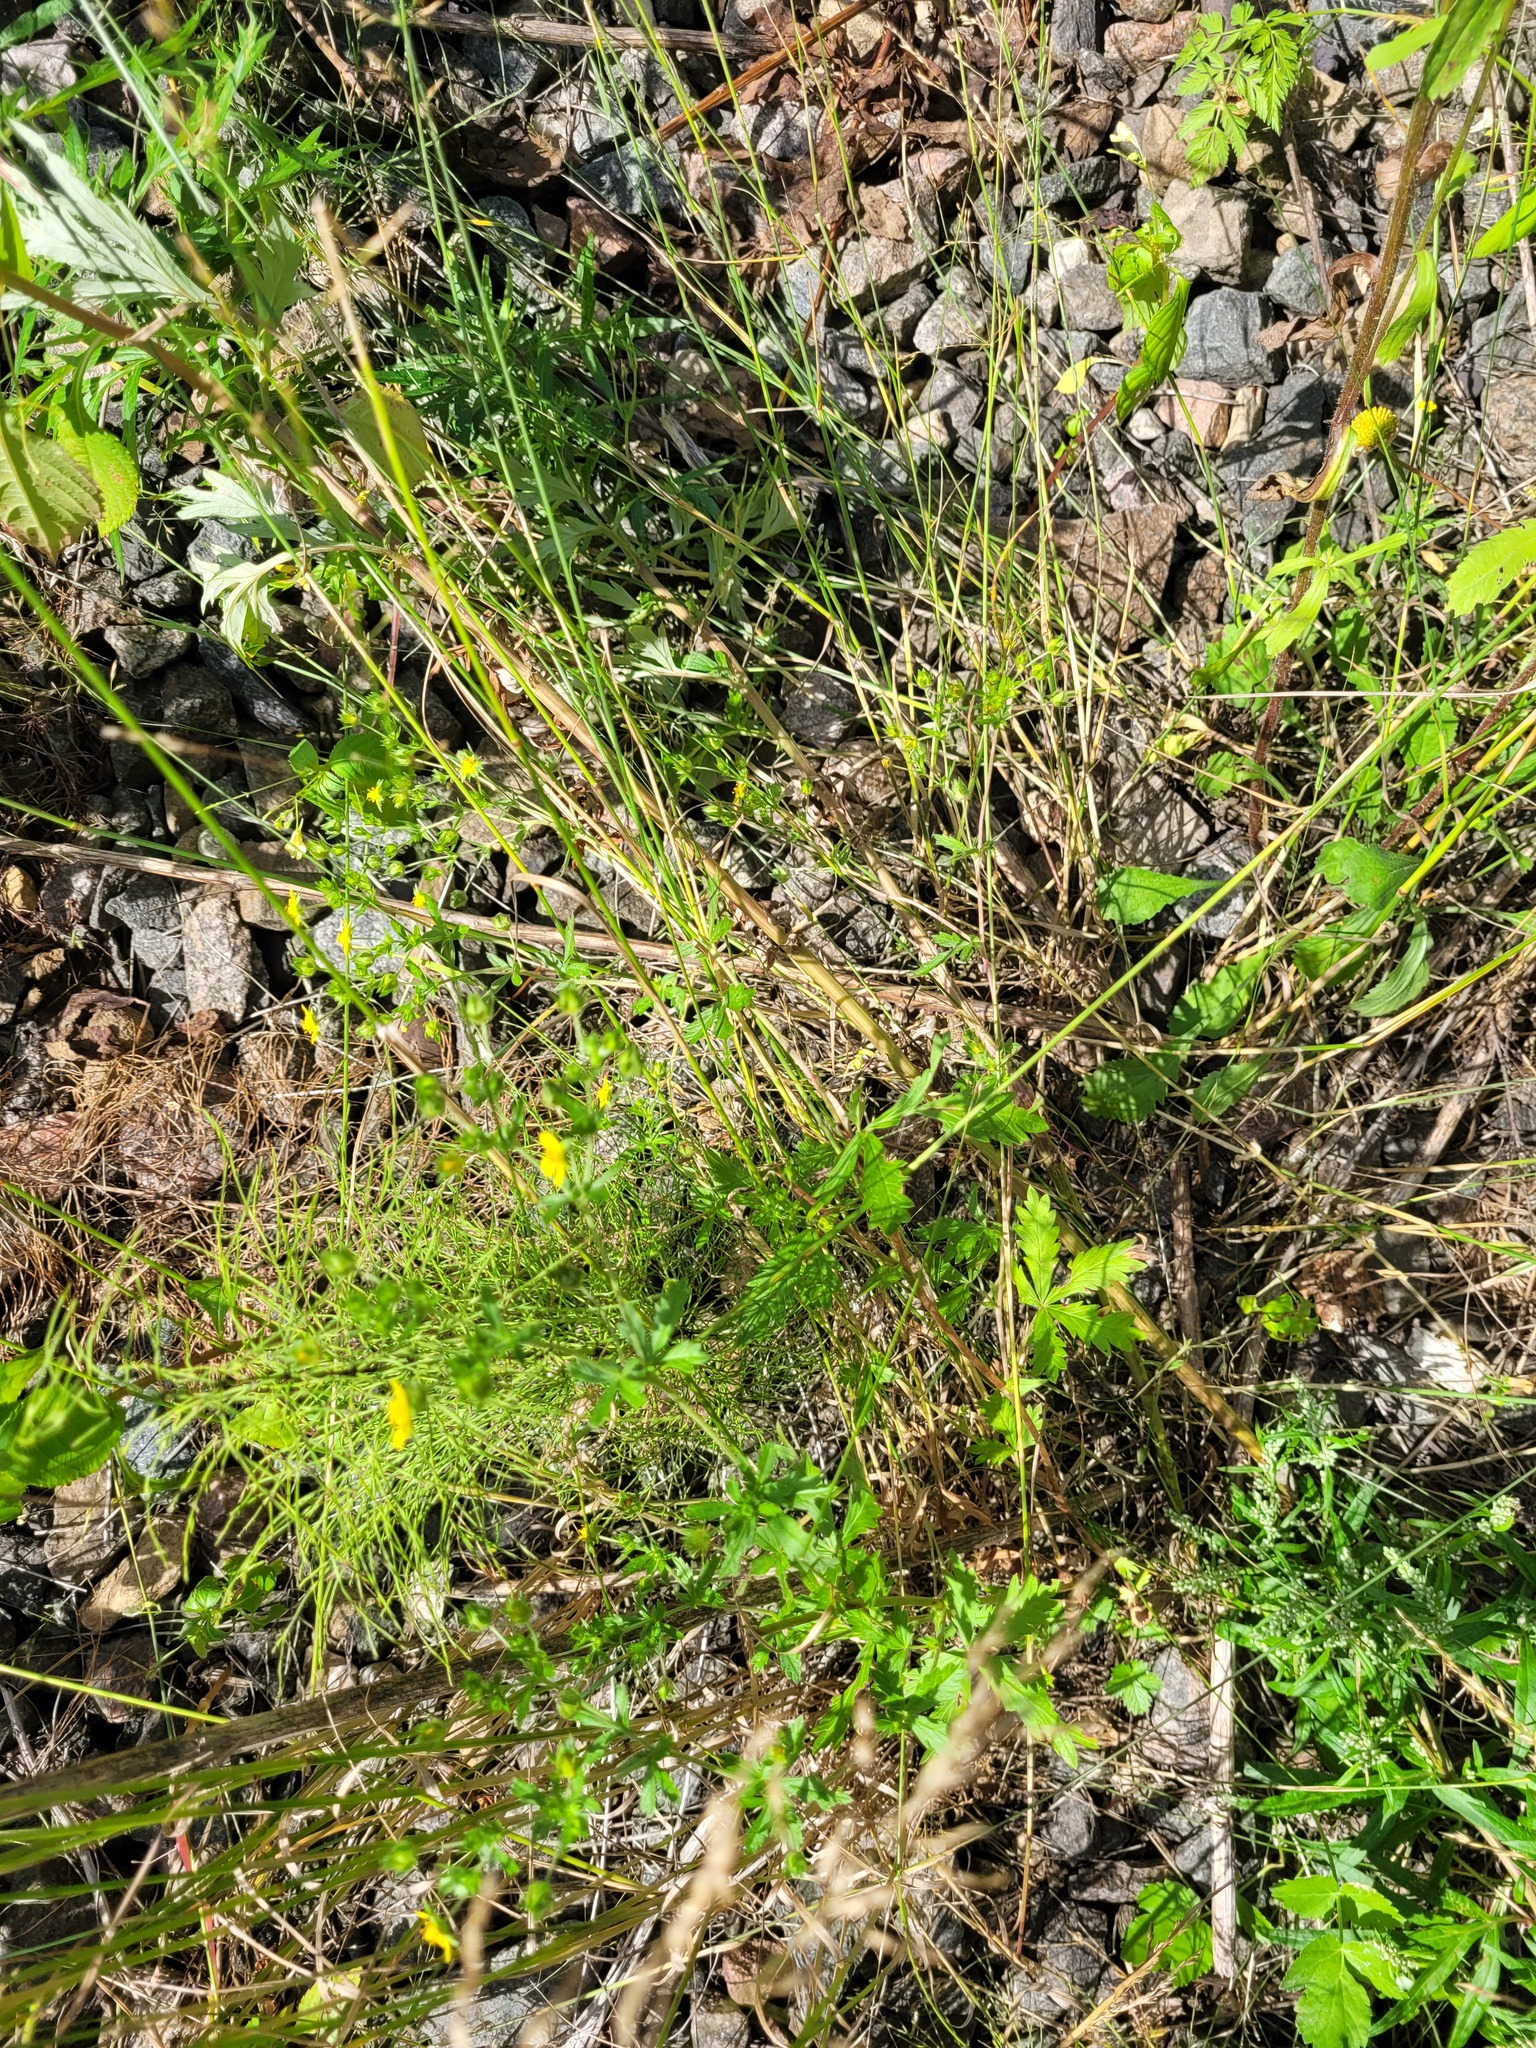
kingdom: Plantae
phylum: Tracheophyta
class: Magnoliopsida
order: Rosales
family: Rosaceae
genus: Potentilla
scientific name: Potentilla intermedia
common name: Downy cinquefoil
